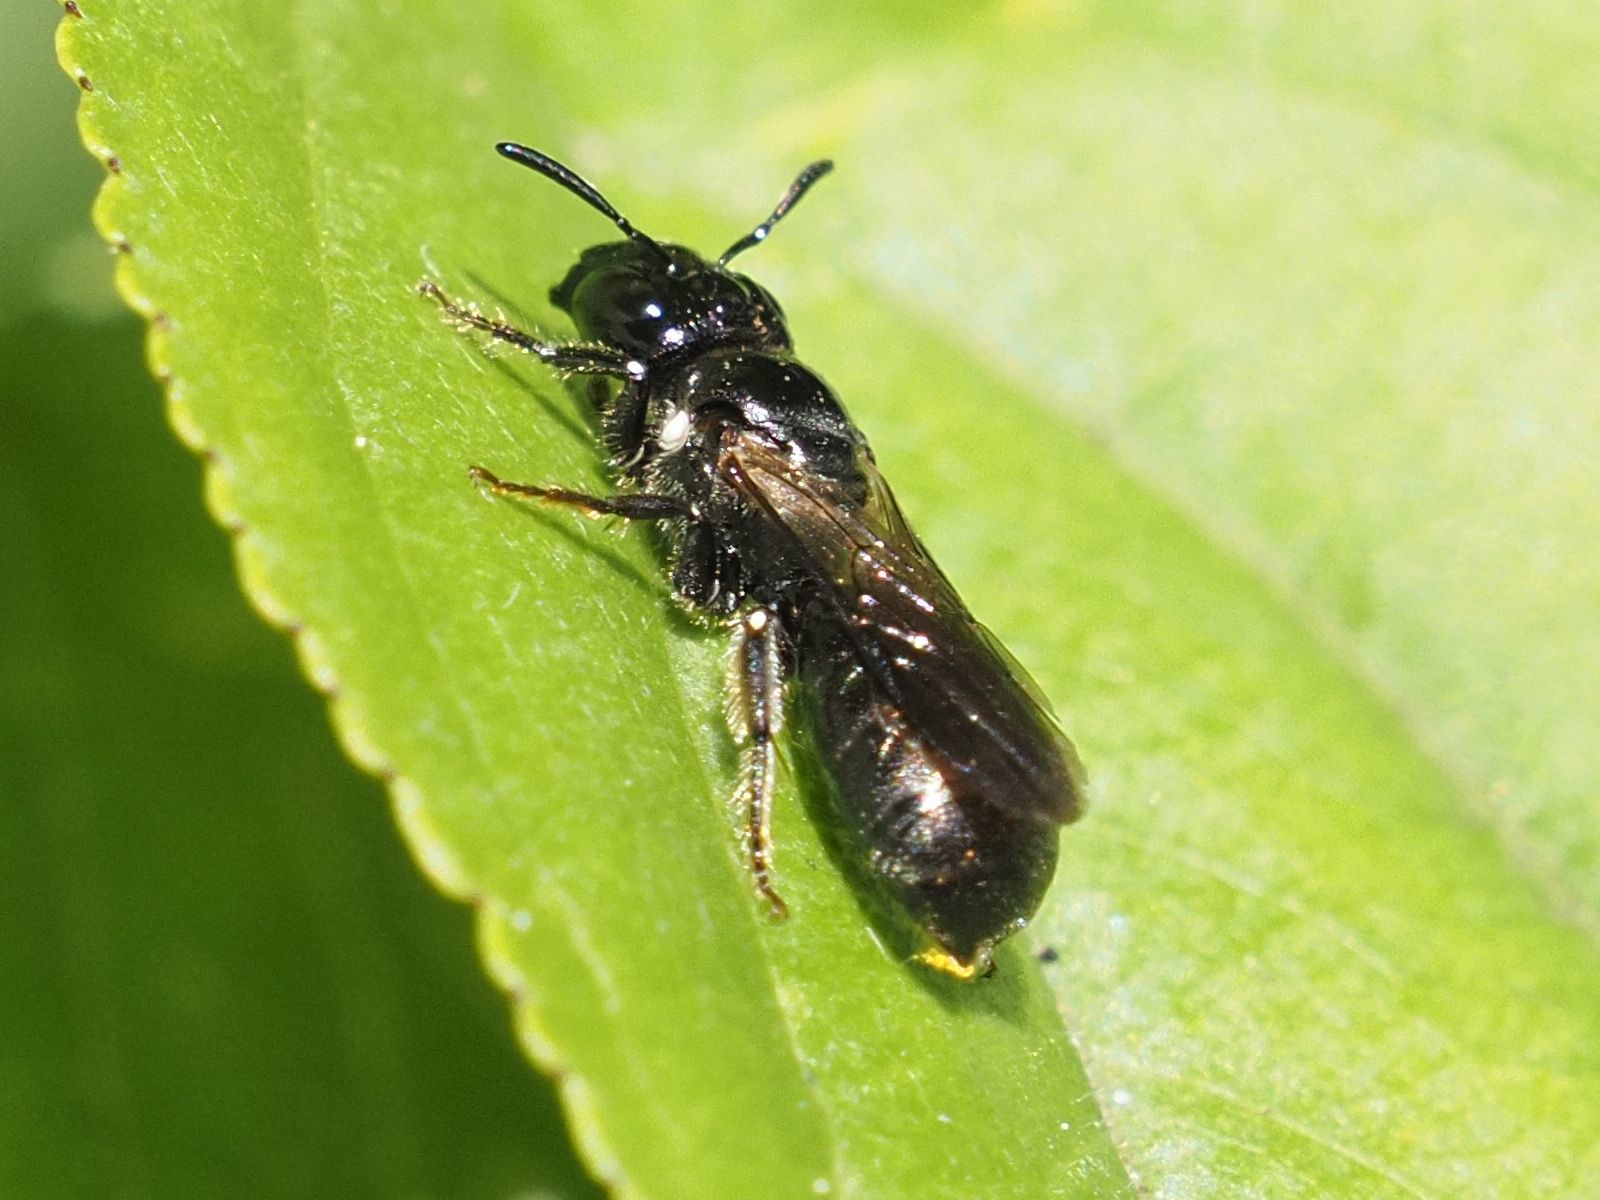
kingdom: Animalia
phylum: Arthropoda
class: Insecta
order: Hymenoptera
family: Apidae
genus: Ceratina
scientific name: Ceratina cucurbitina
